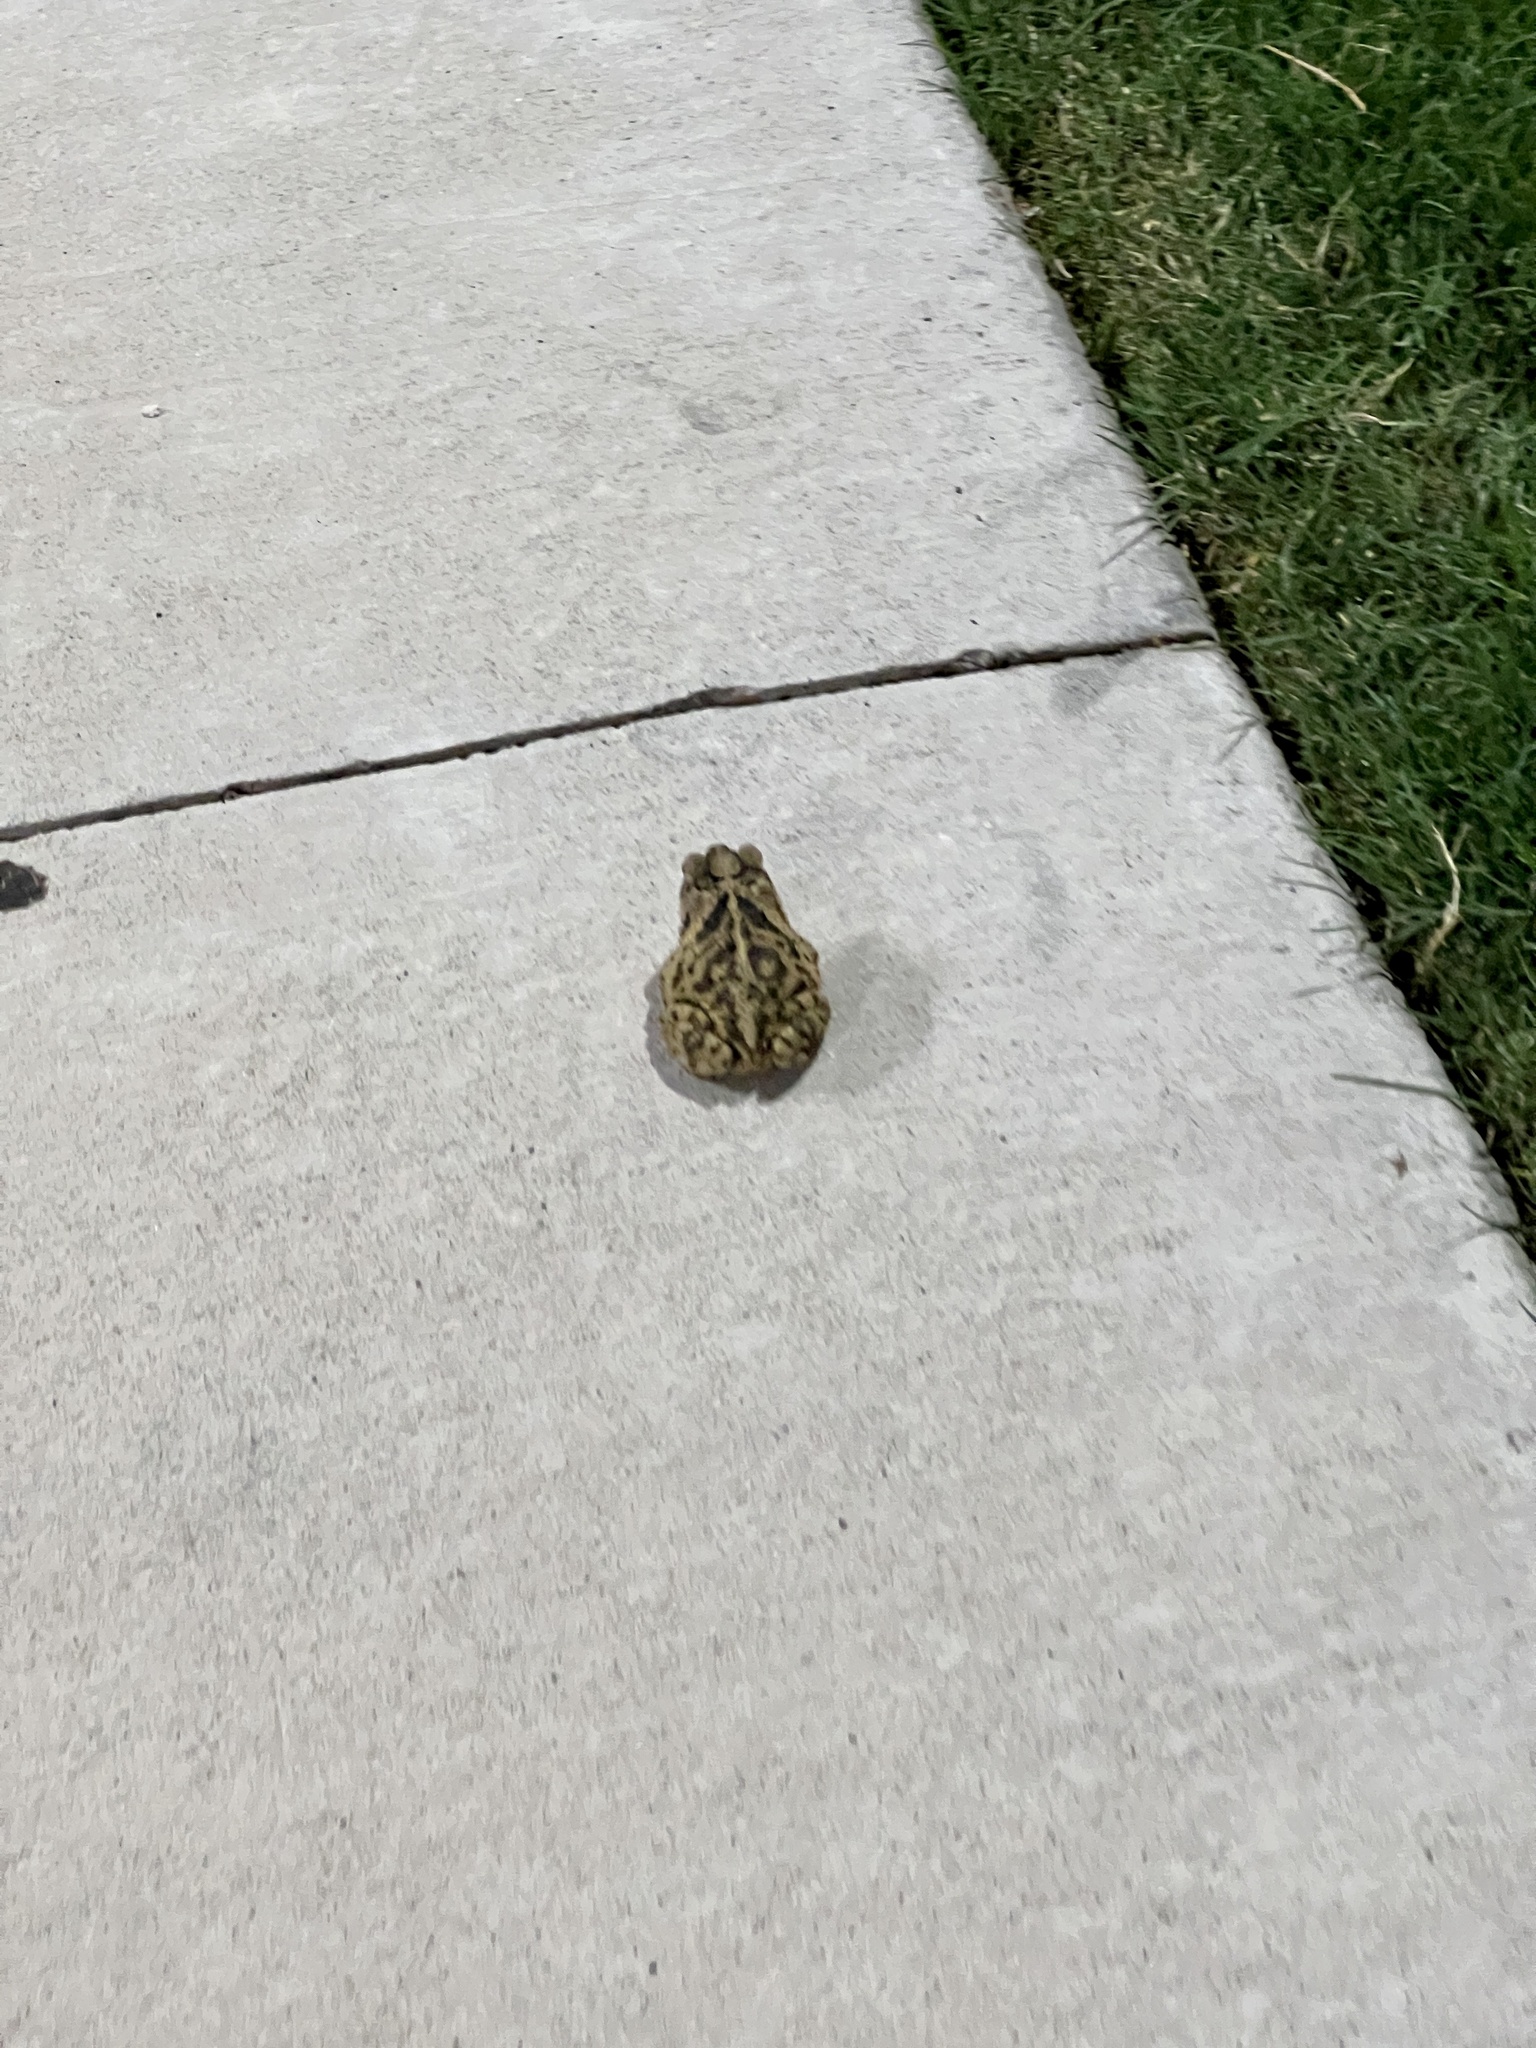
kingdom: Animalia
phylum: Chordata
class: Amphibia
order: Anura
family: Bufonidae
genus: Incilius
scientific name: Incilius nebulifer
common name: Gulf coast toad
